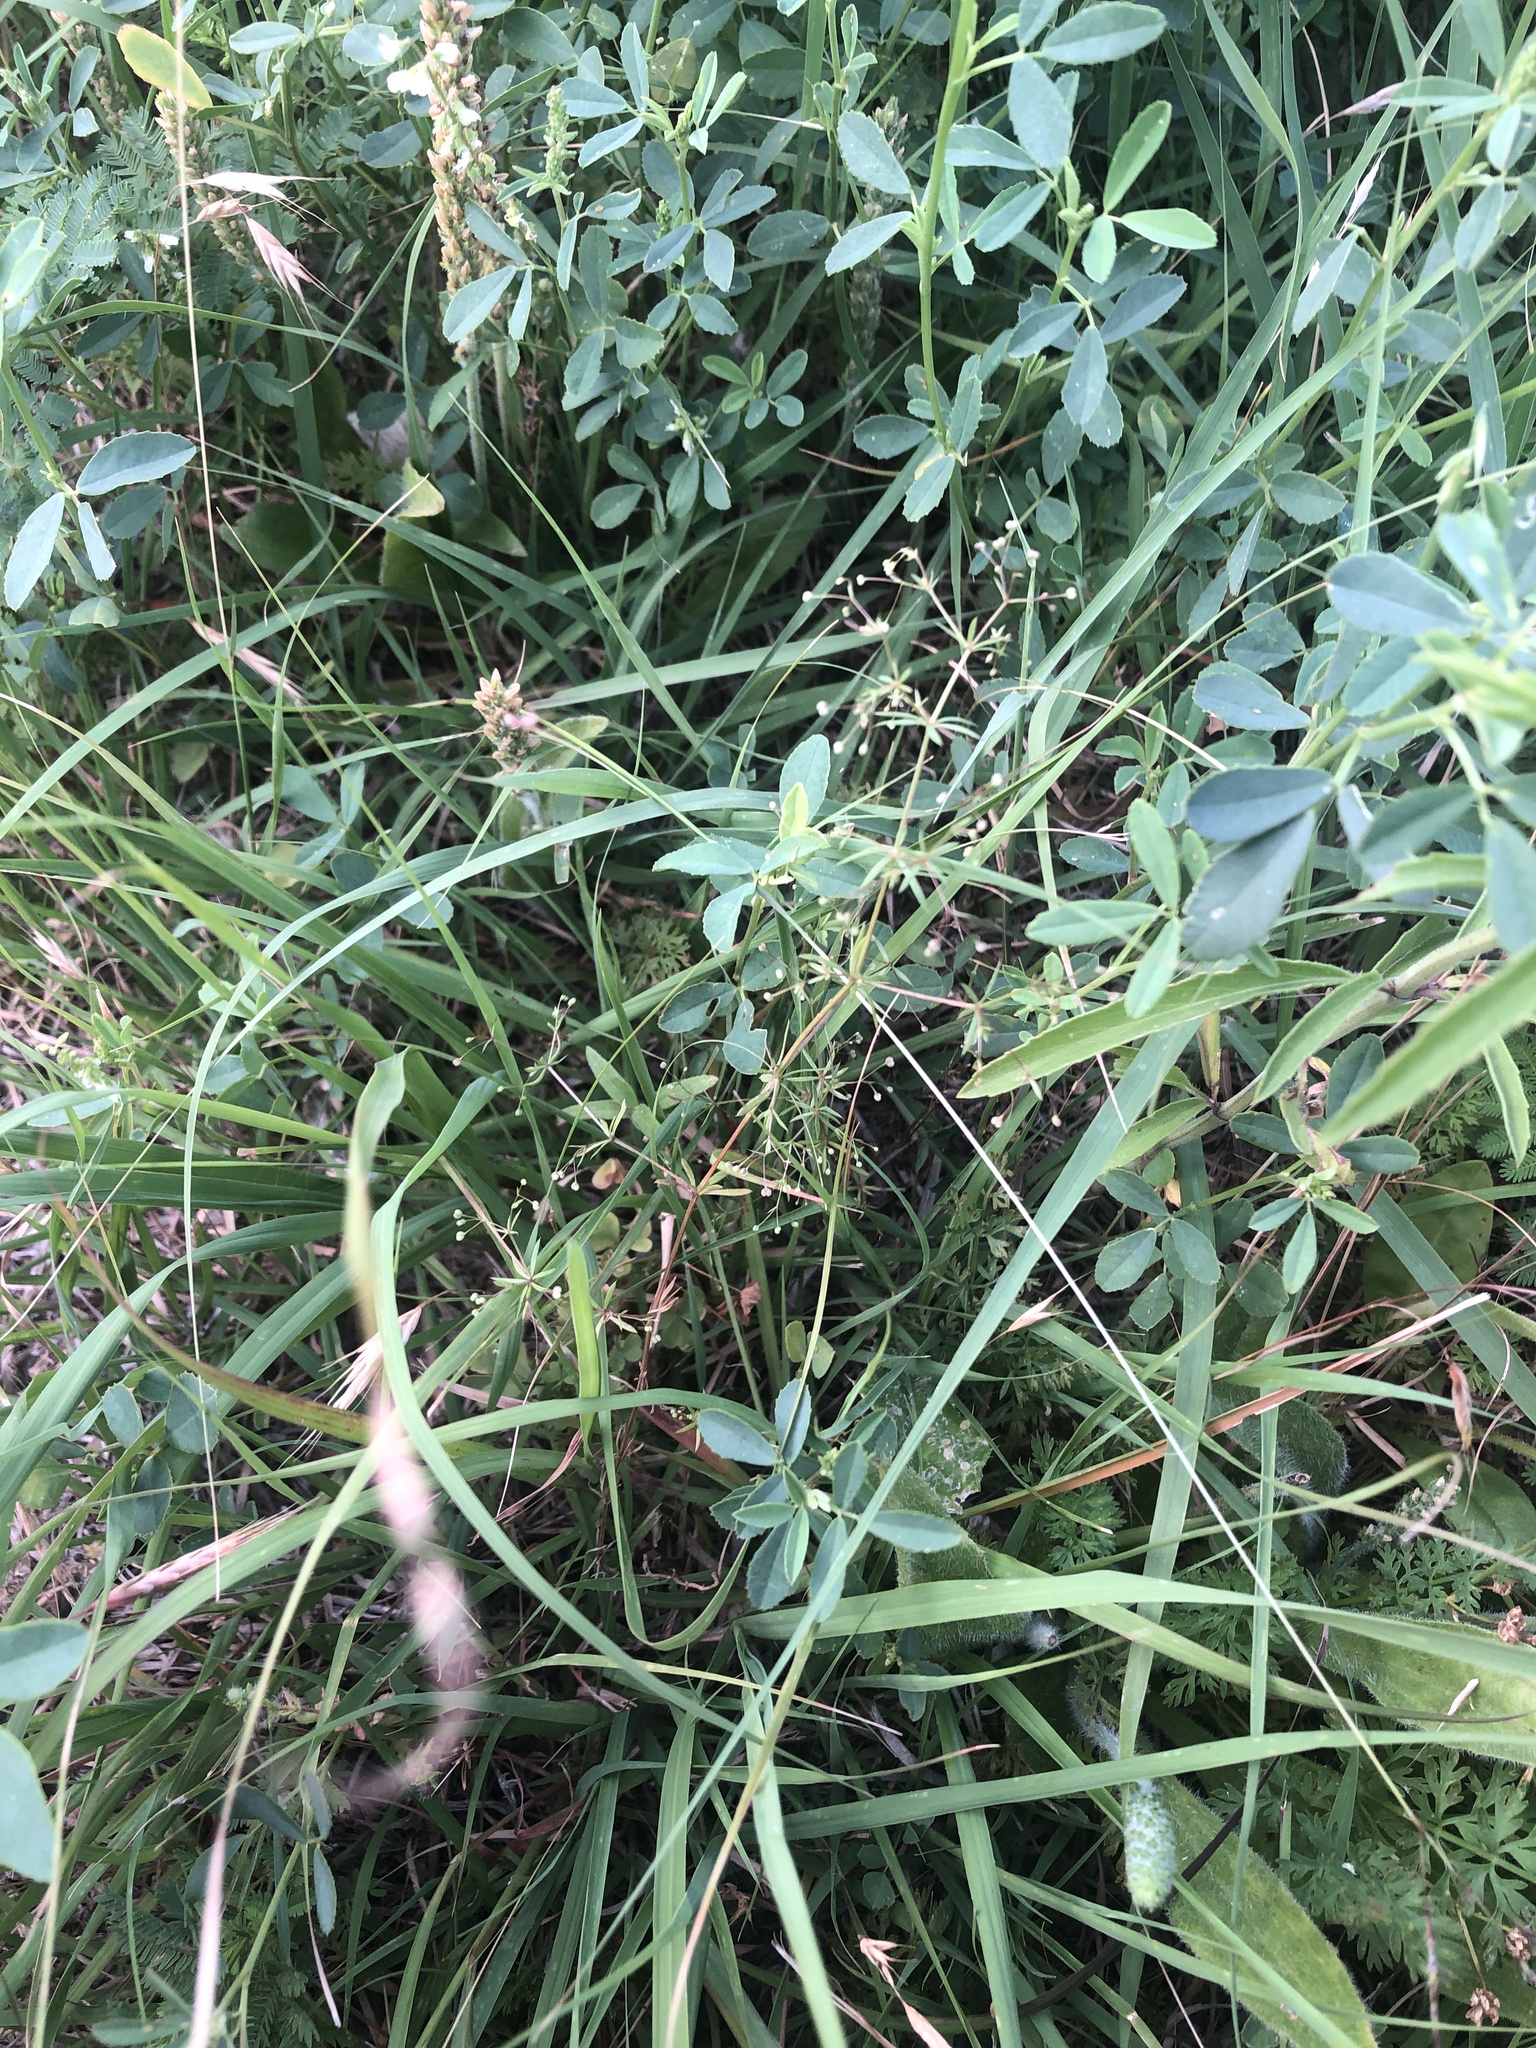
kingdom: Plantae
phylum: Tracheophyta
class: Magnoliopsida
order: Gentianales
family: Rubiaceae
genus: Galium
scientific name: Galium divaricatum
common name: Lamarck's bedstraw
